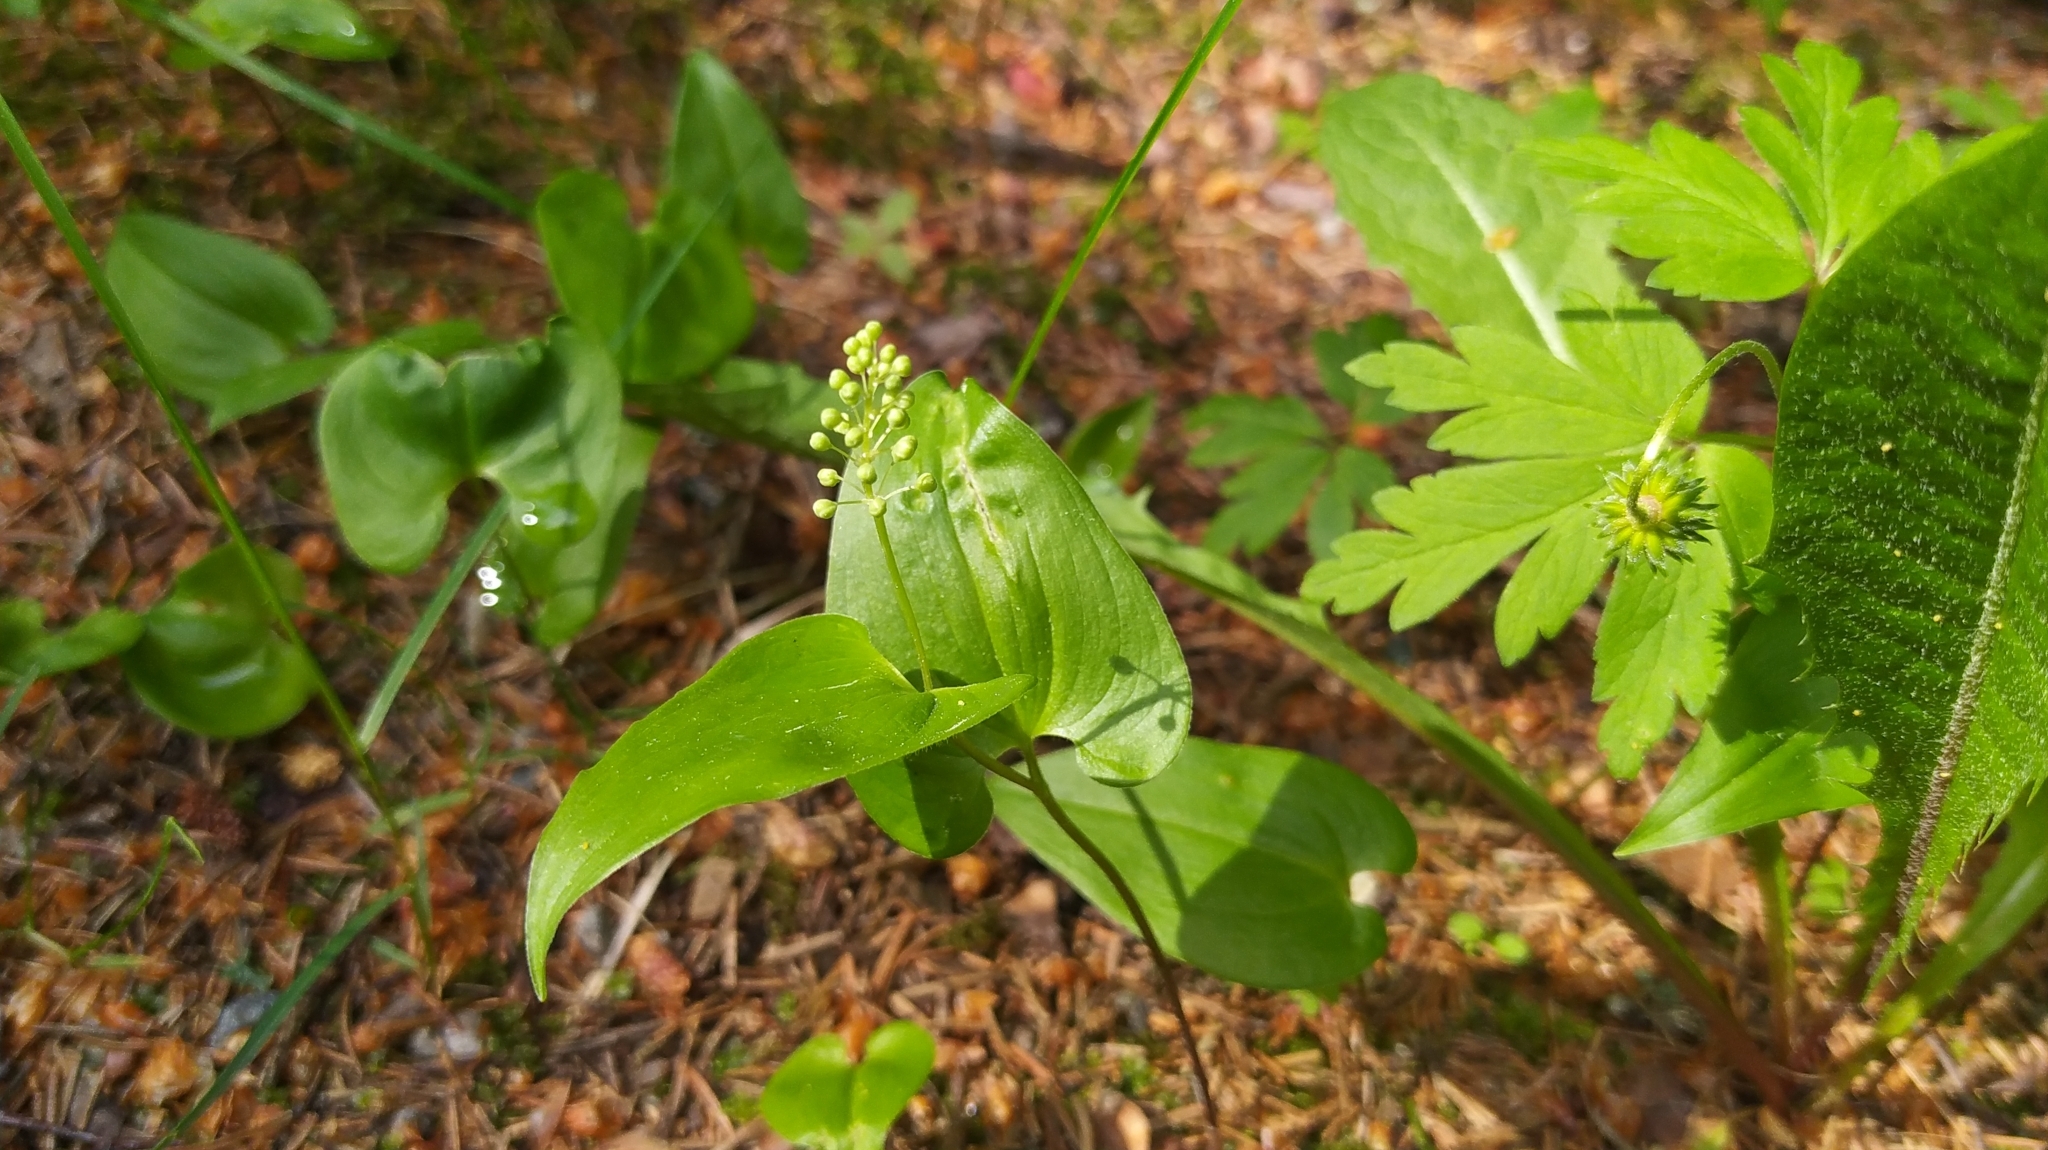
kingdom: Plantae
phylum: Tracheophyta
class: Liliopsida
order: Asparagales
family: Asparagaceae
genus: Maianthemum
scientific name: Maianthemum bifolium
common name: May lily
